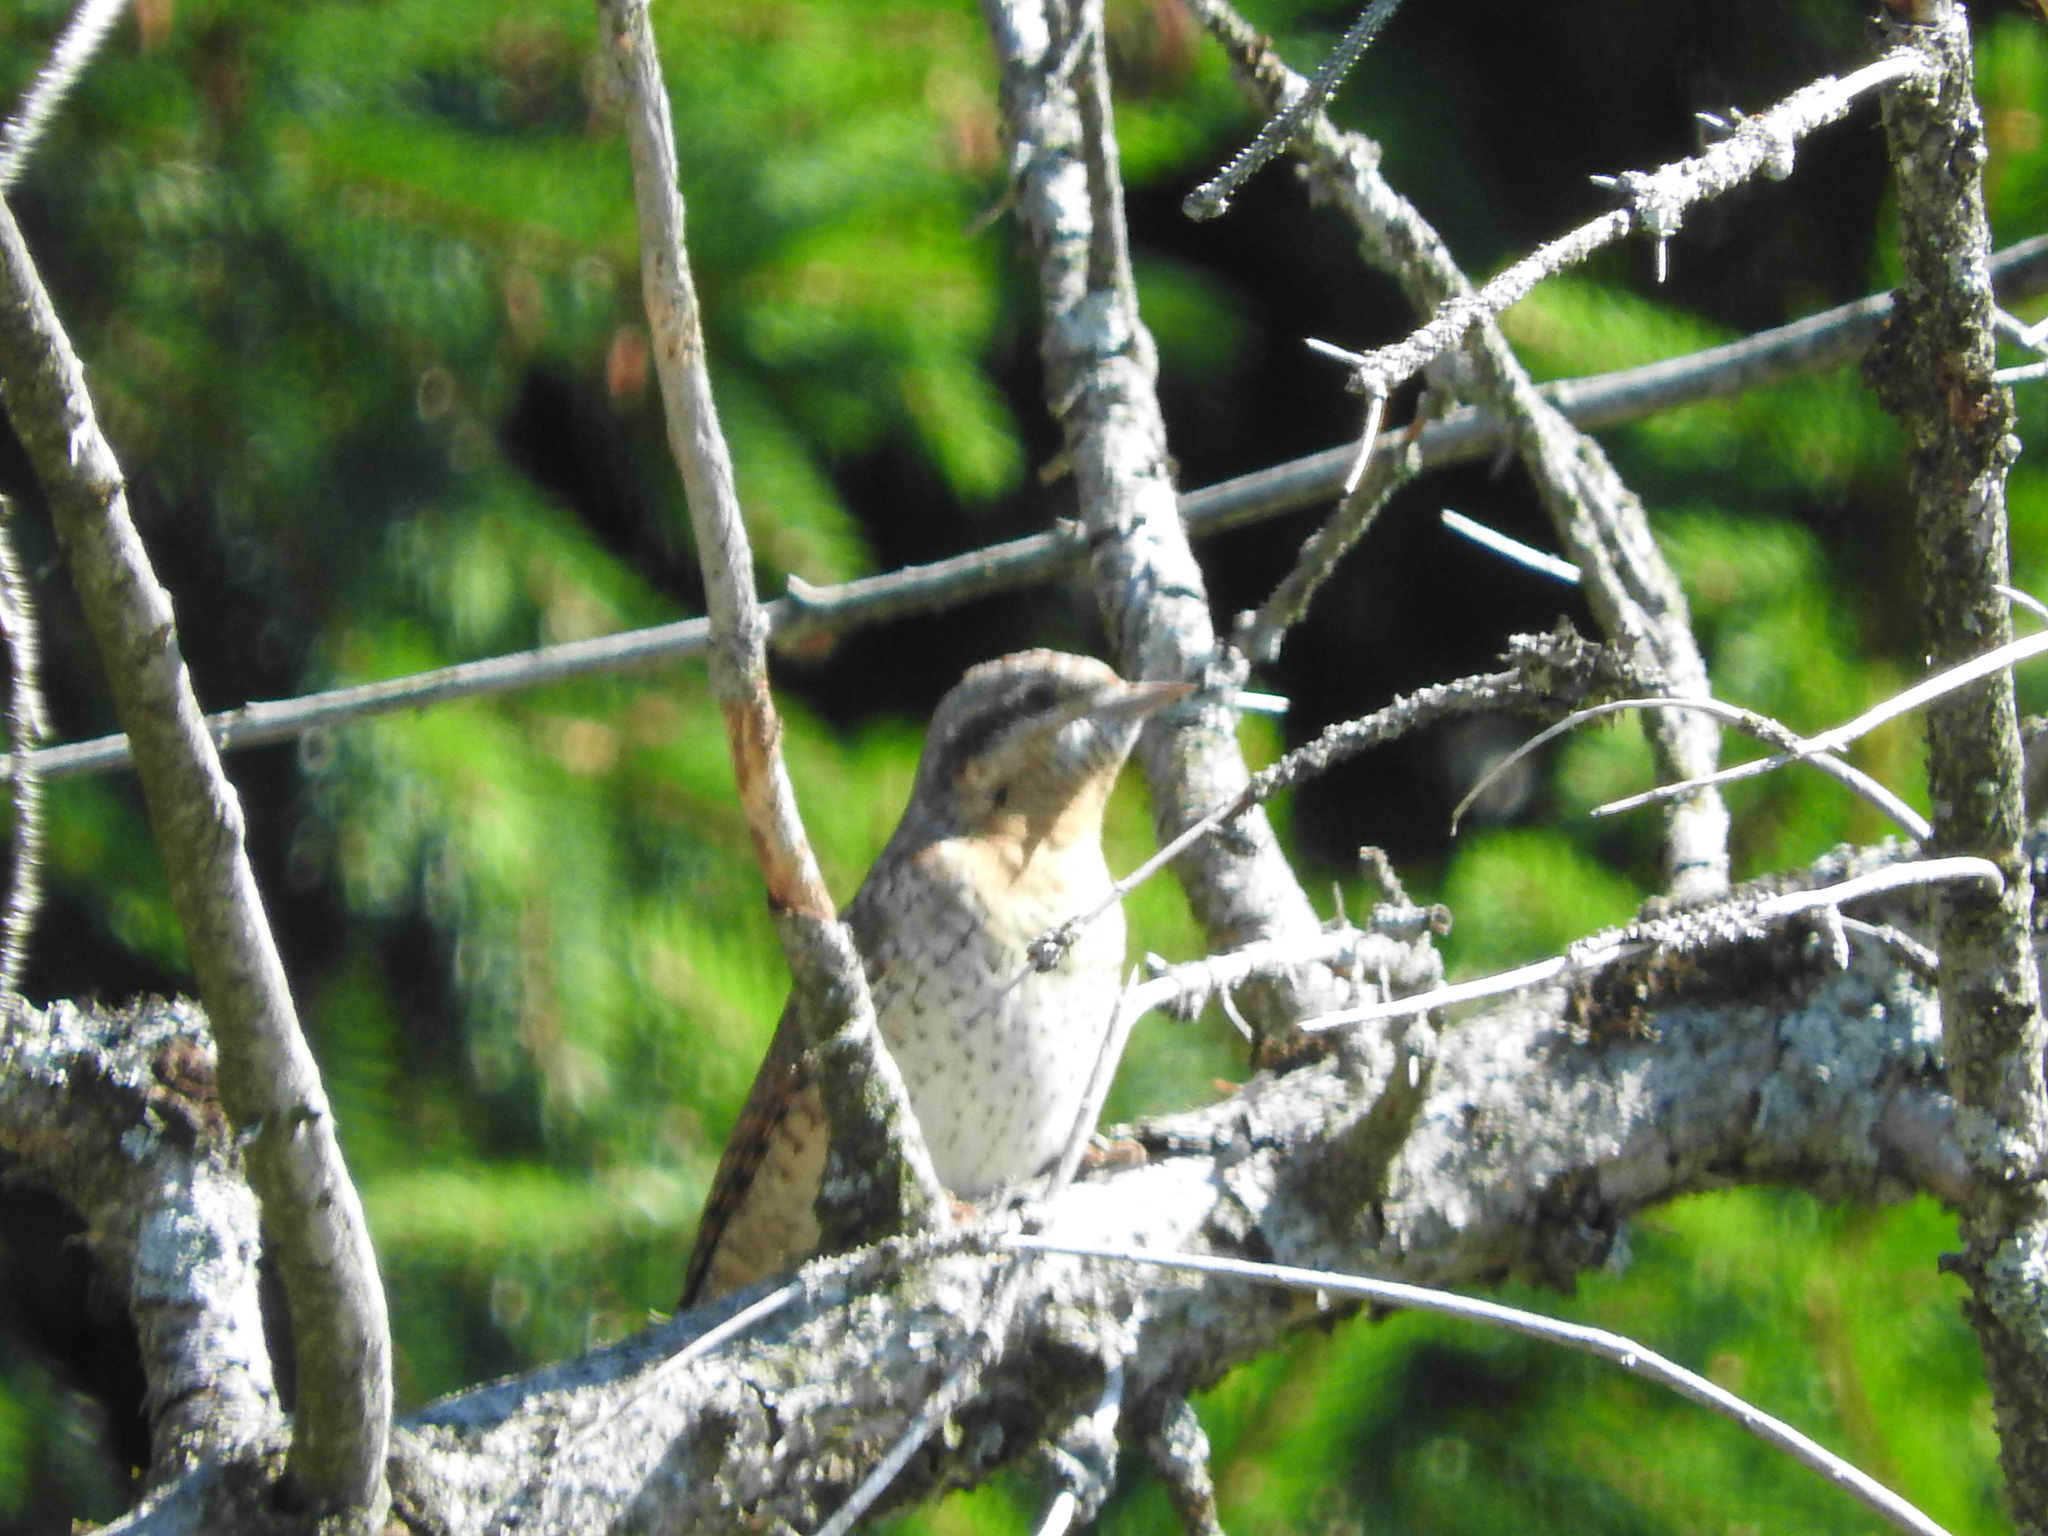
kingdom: Animalia
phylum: Chordata
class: Aves
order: Piciformes
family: Picidae
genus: Jynx
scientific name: Jynx torquilla
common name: Eurasian wryneck
